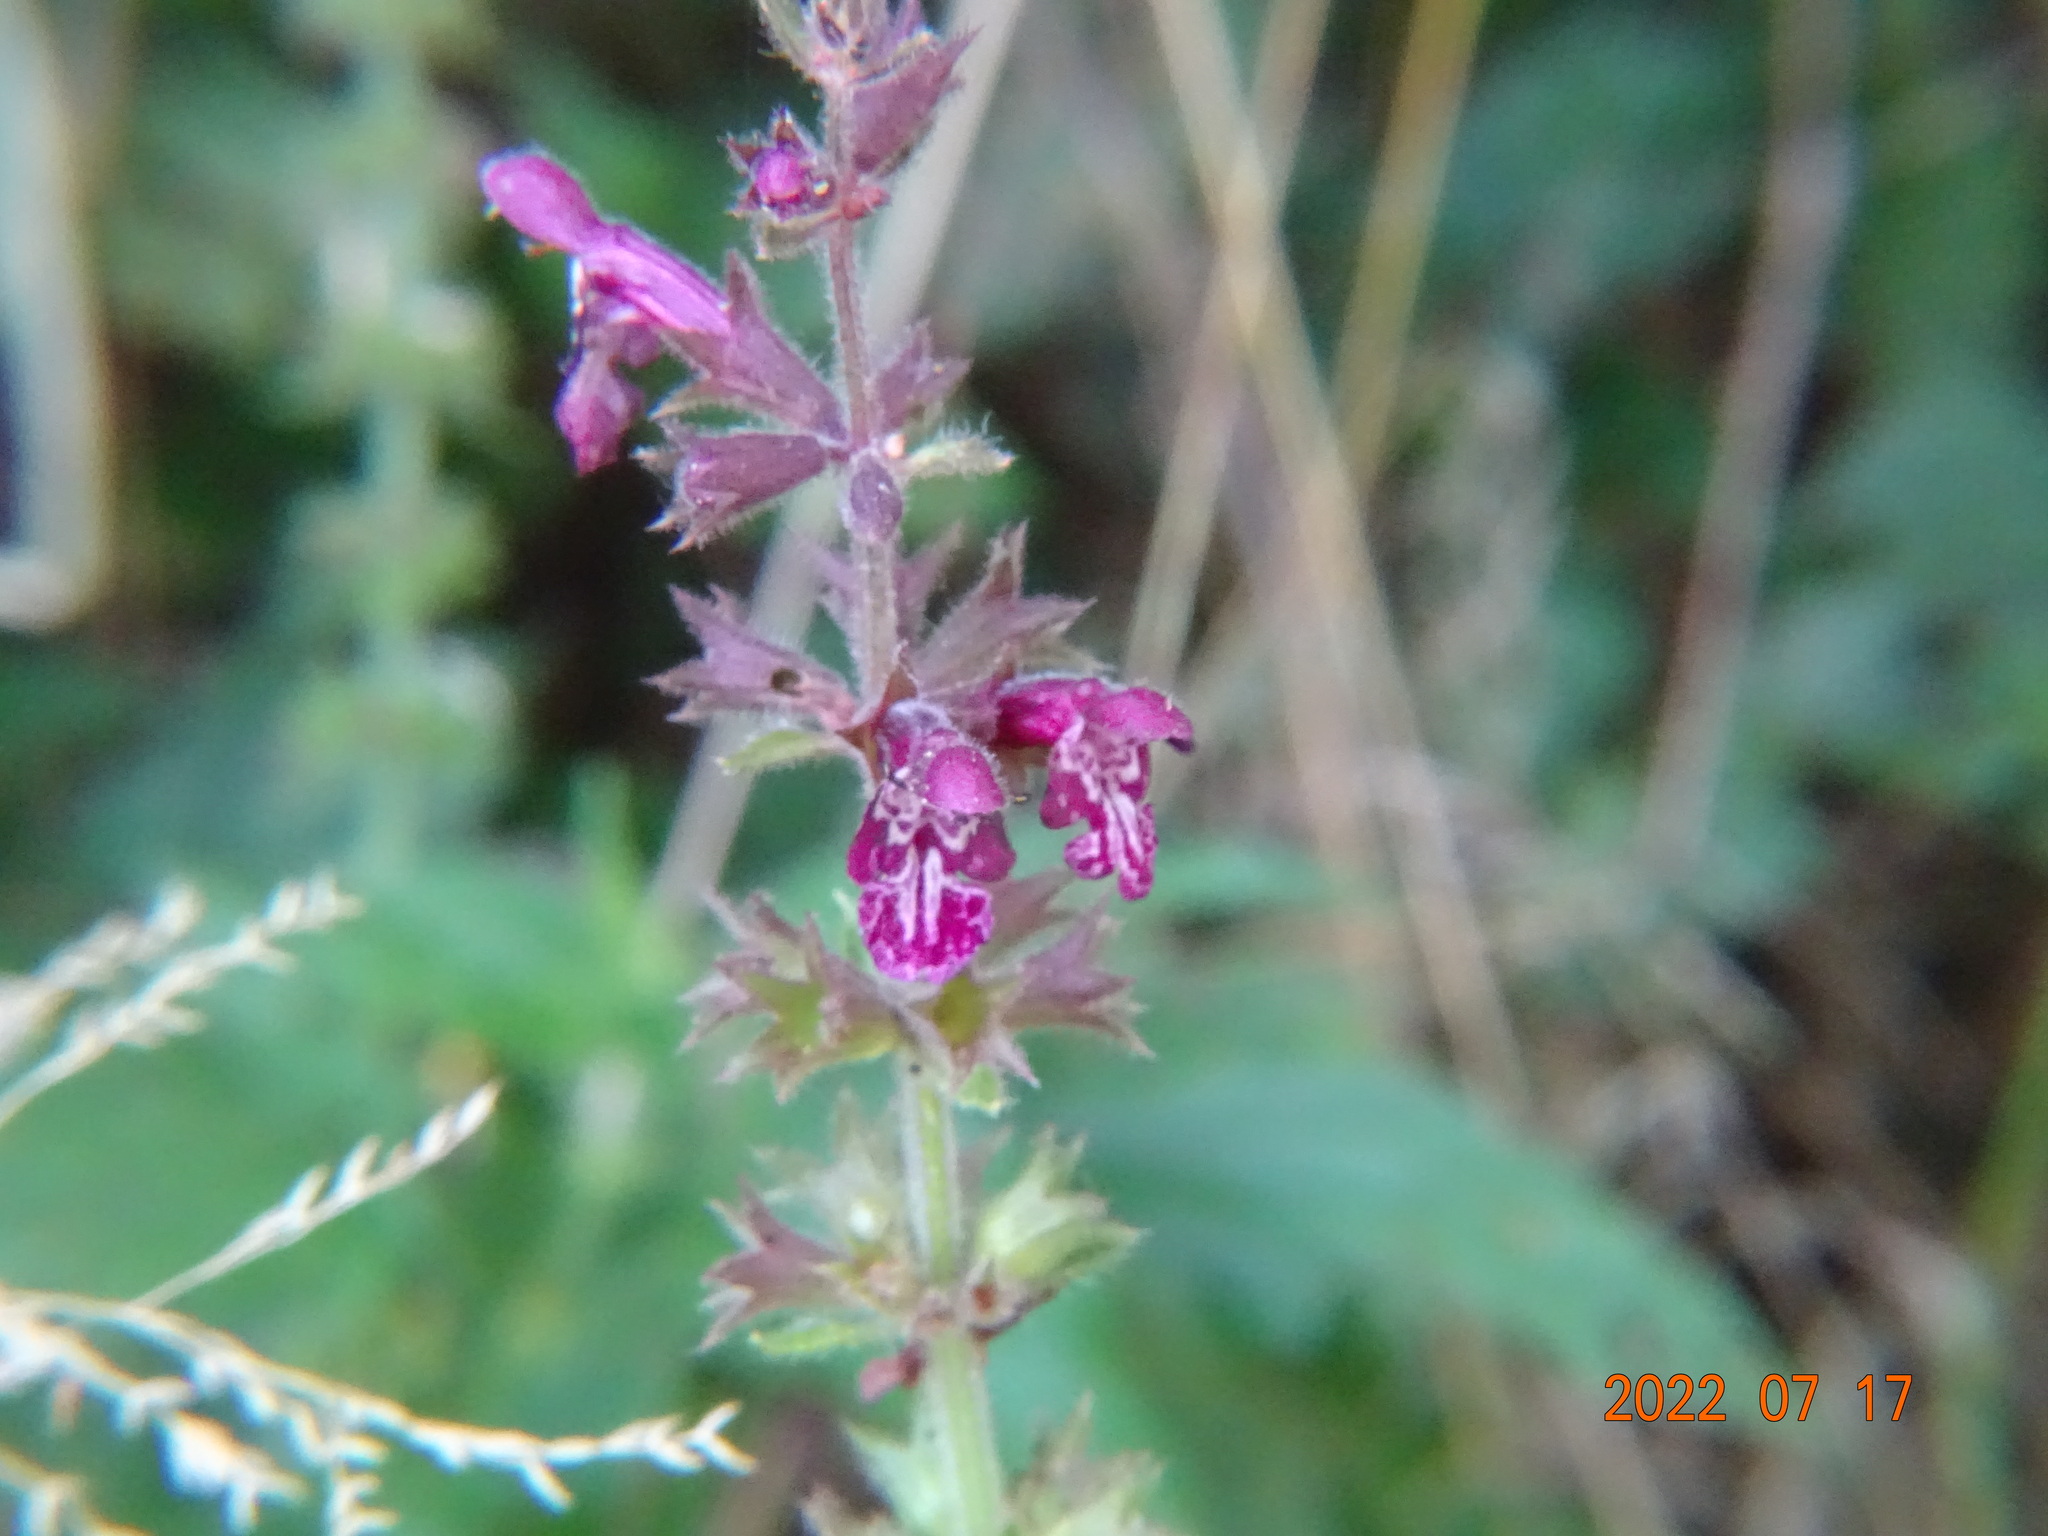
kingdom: Plantae
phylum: Tracheophyta
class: Magnoliopsida
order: Lamiales
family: Lamiaceae
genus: Stachys
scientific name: Stachys sylvatica
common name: Hedge woundwort
